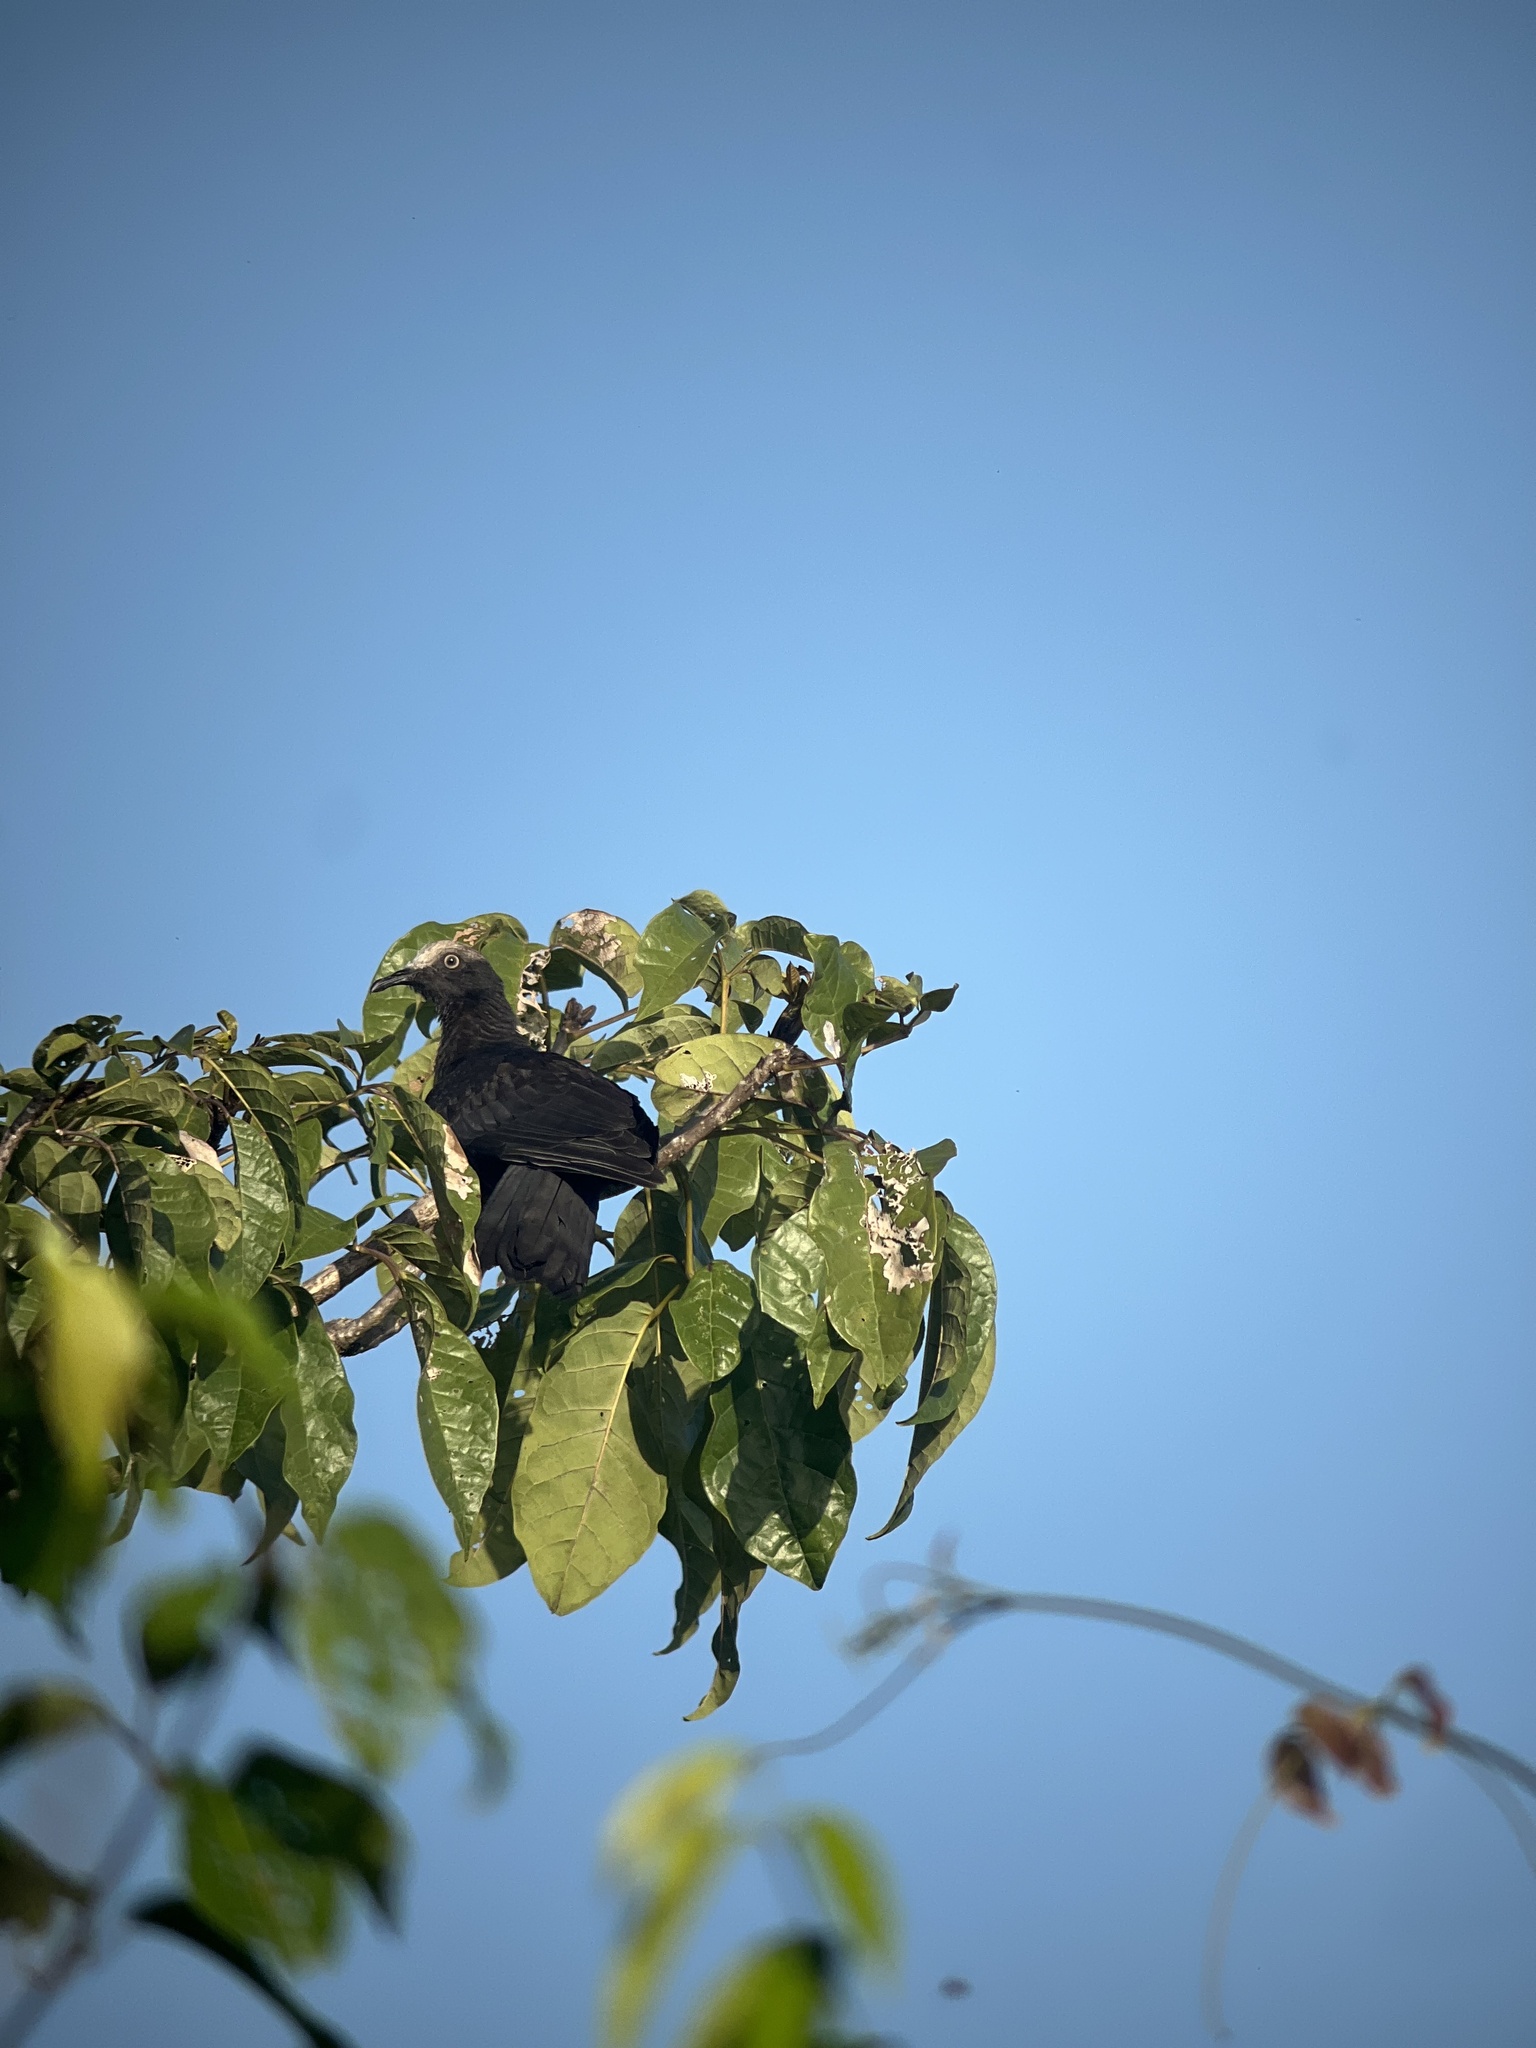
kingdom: Animalia
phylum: Chordata
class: Aves
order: Columbiformes
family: Columbidae
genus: Patagioenas
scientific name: Patagioenas leucocephala
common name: White-crowned pigeon
